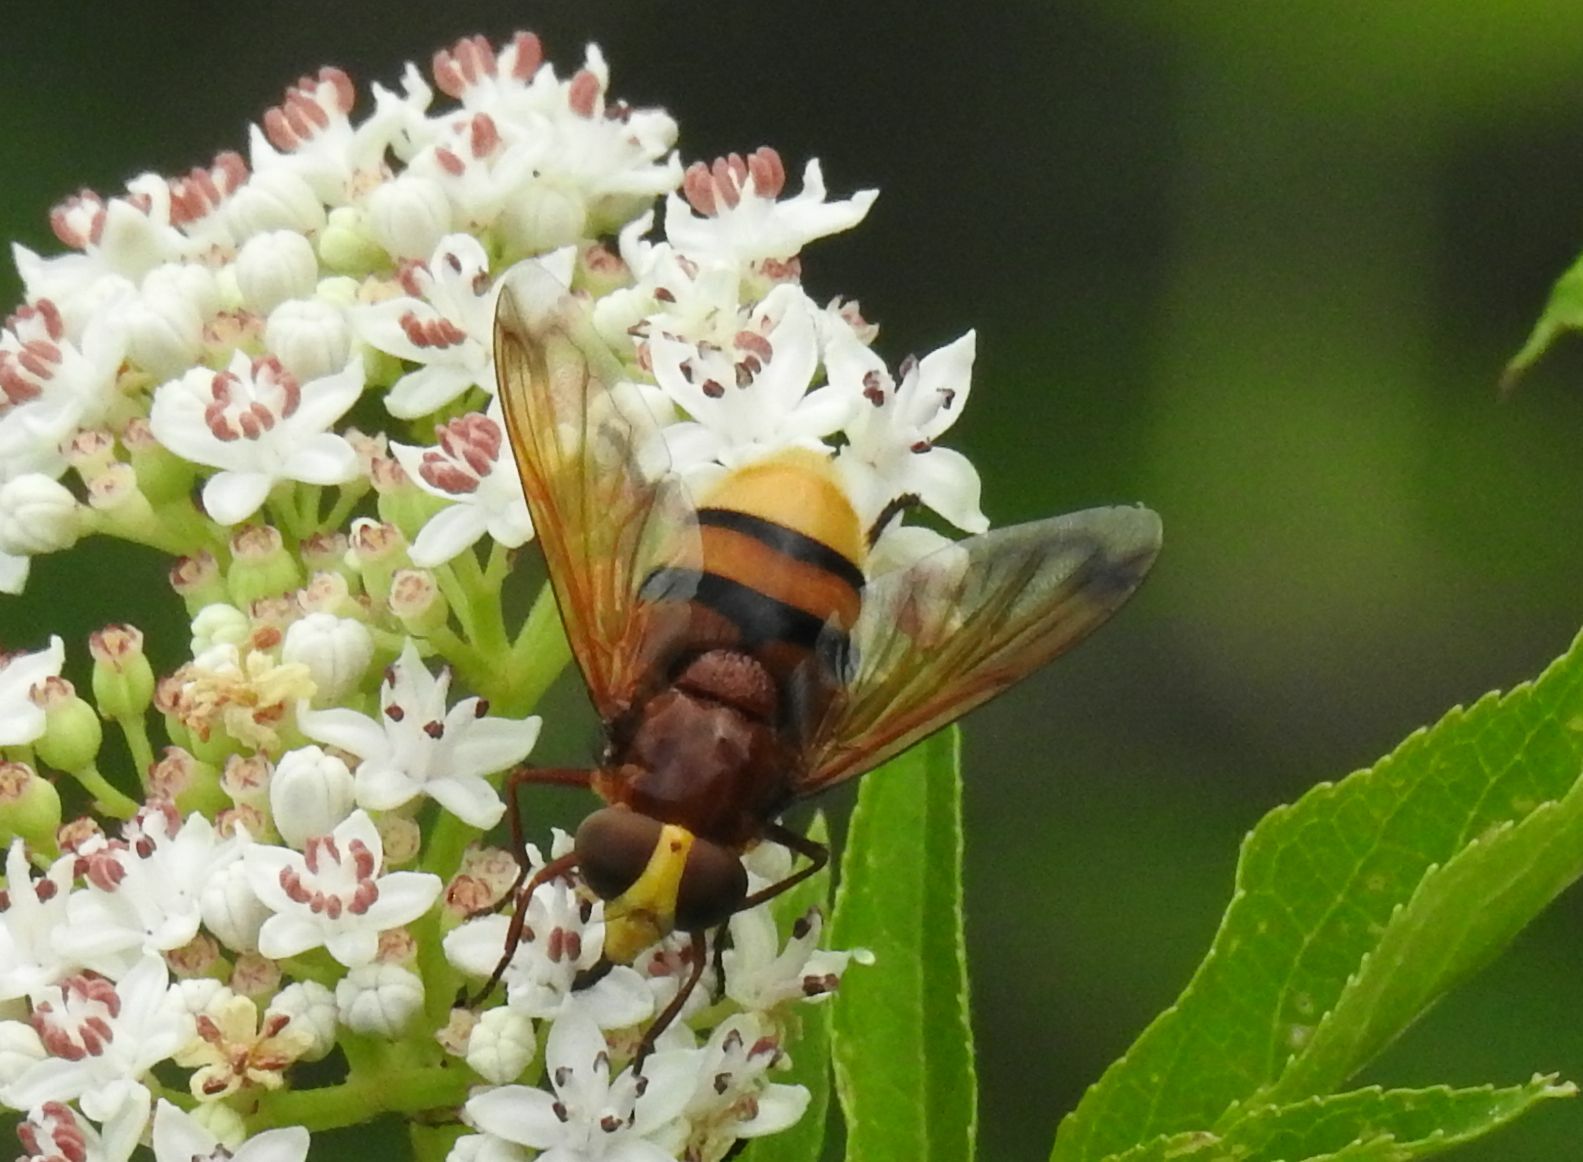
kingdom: Animalia
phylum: Arthropoda
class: Insecta
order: Diptera
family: Syrphidae
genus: Volucella
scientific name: Volucella zonaria
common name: Hornet hoverfly
